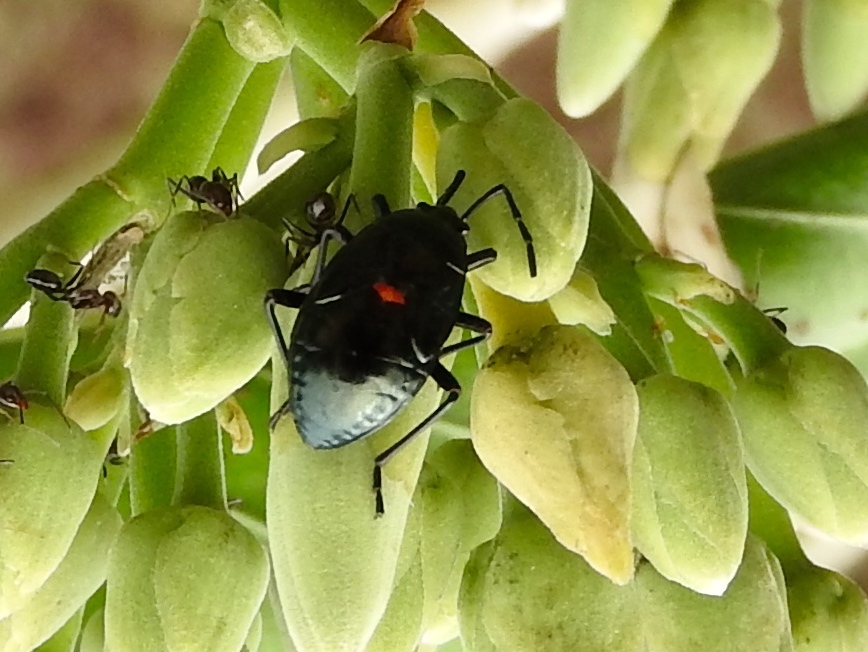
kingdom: Animalia
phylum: Arthropoda
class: Insecta
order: Hemiptera
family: Largidae
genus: Largus
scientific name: Largus
